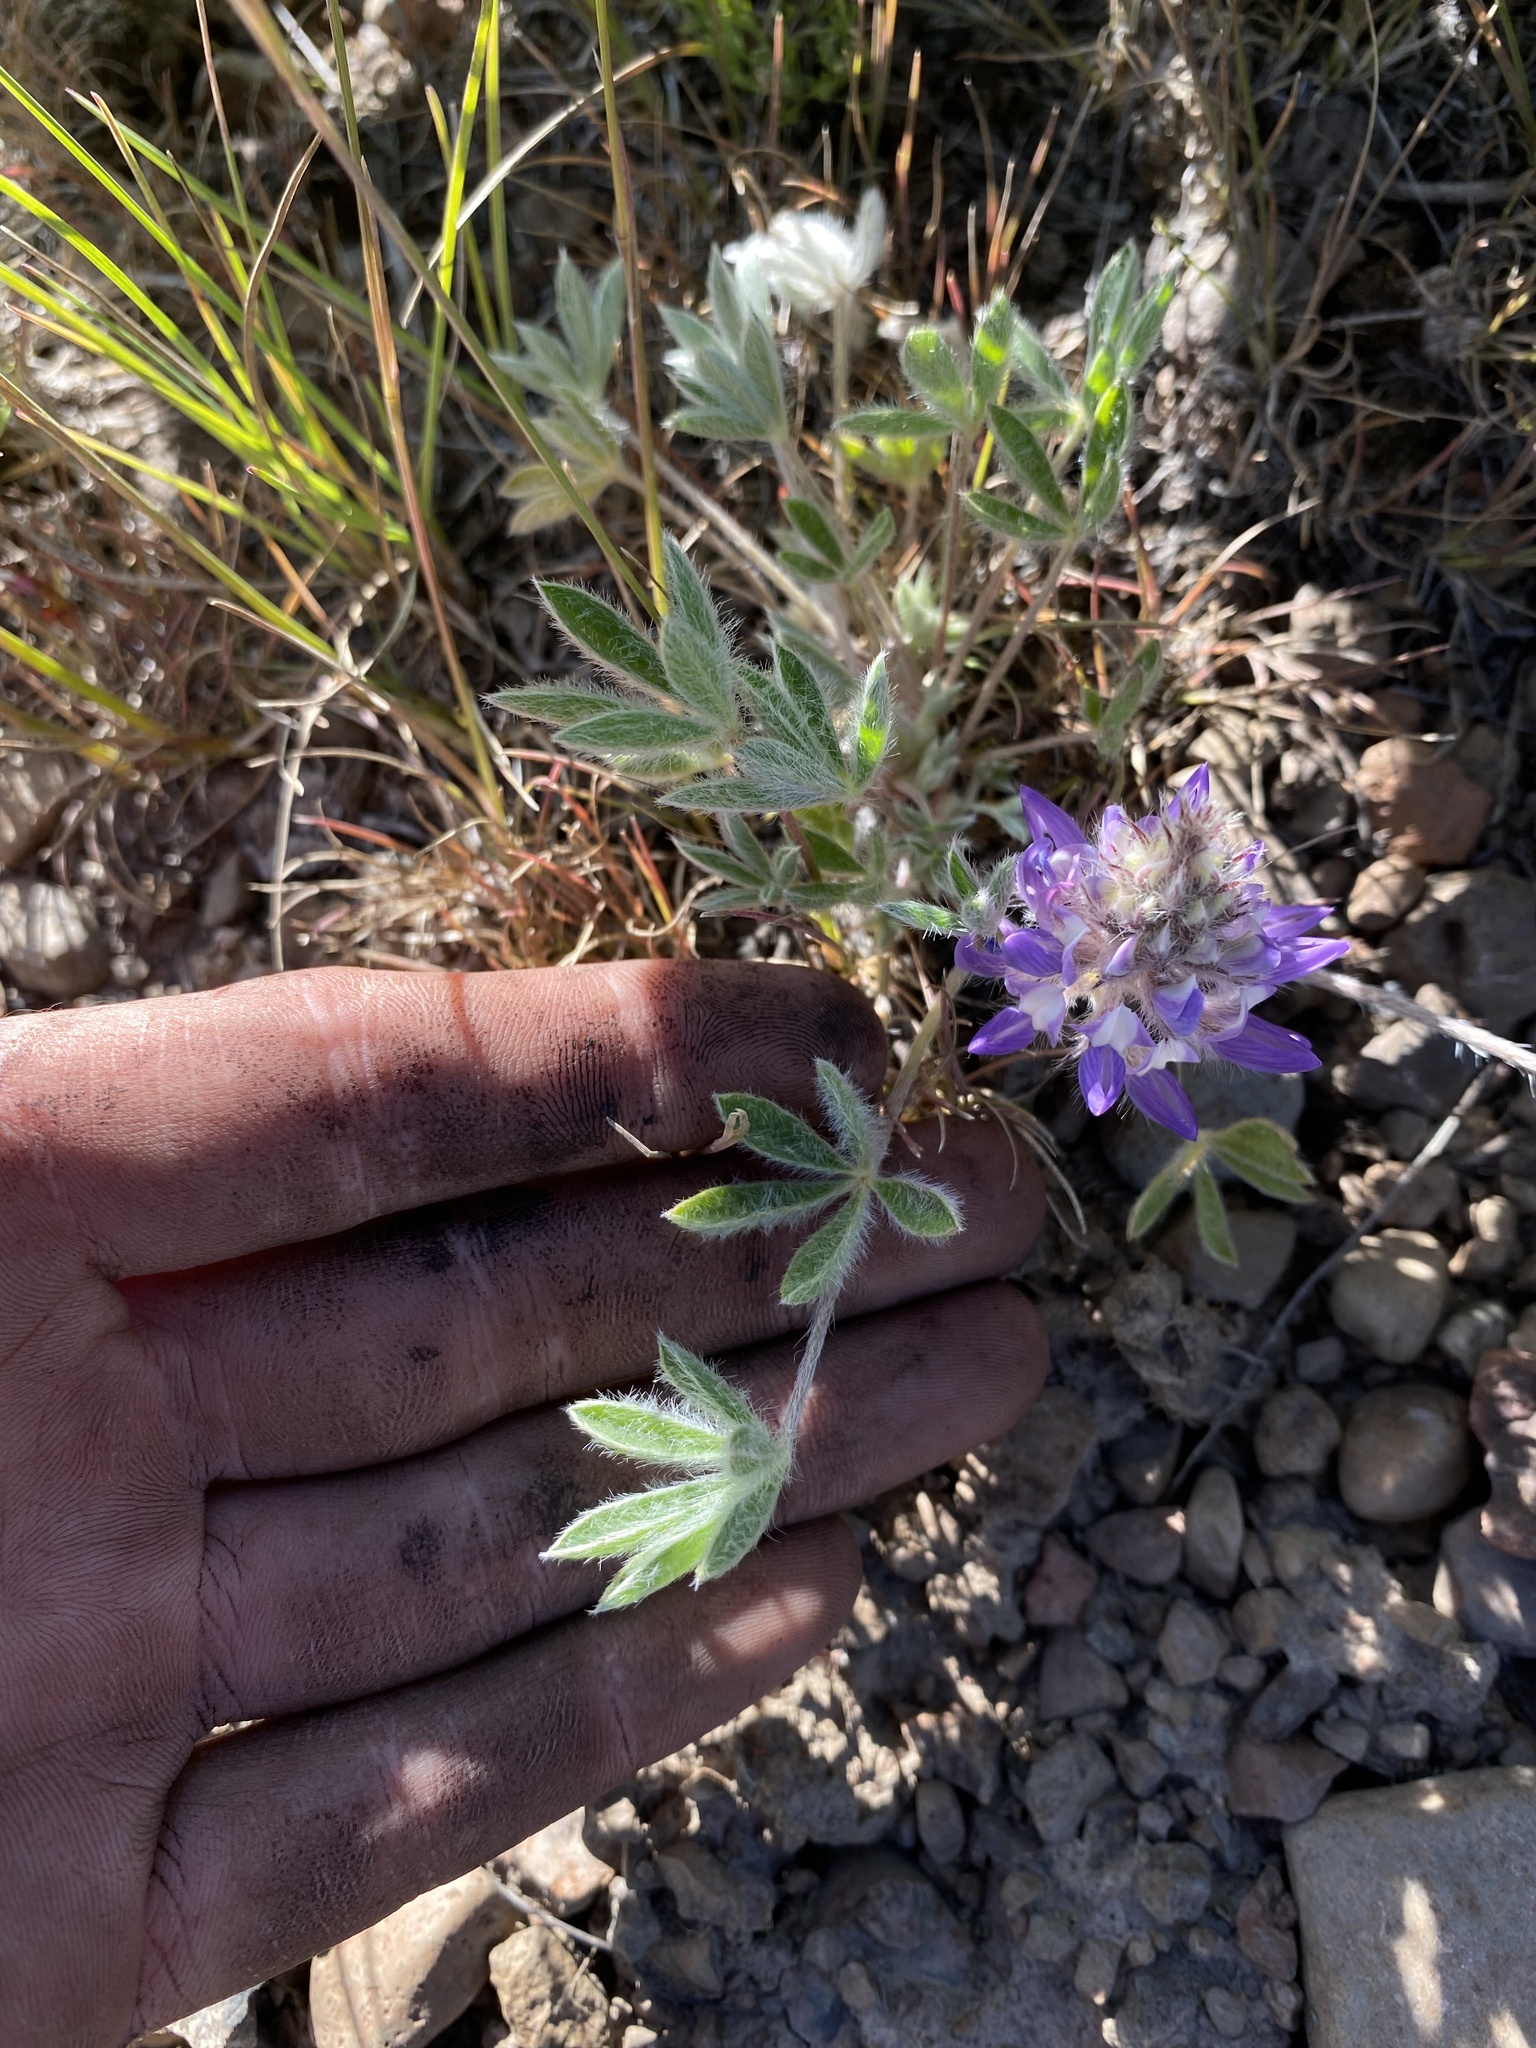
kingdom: Plantae
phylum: Tracheophyta
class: Magnoliopsida
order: Fabales
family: Fabaceae
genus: Lupinus
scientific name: Lupinus lepidus
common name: Prairie lupine
